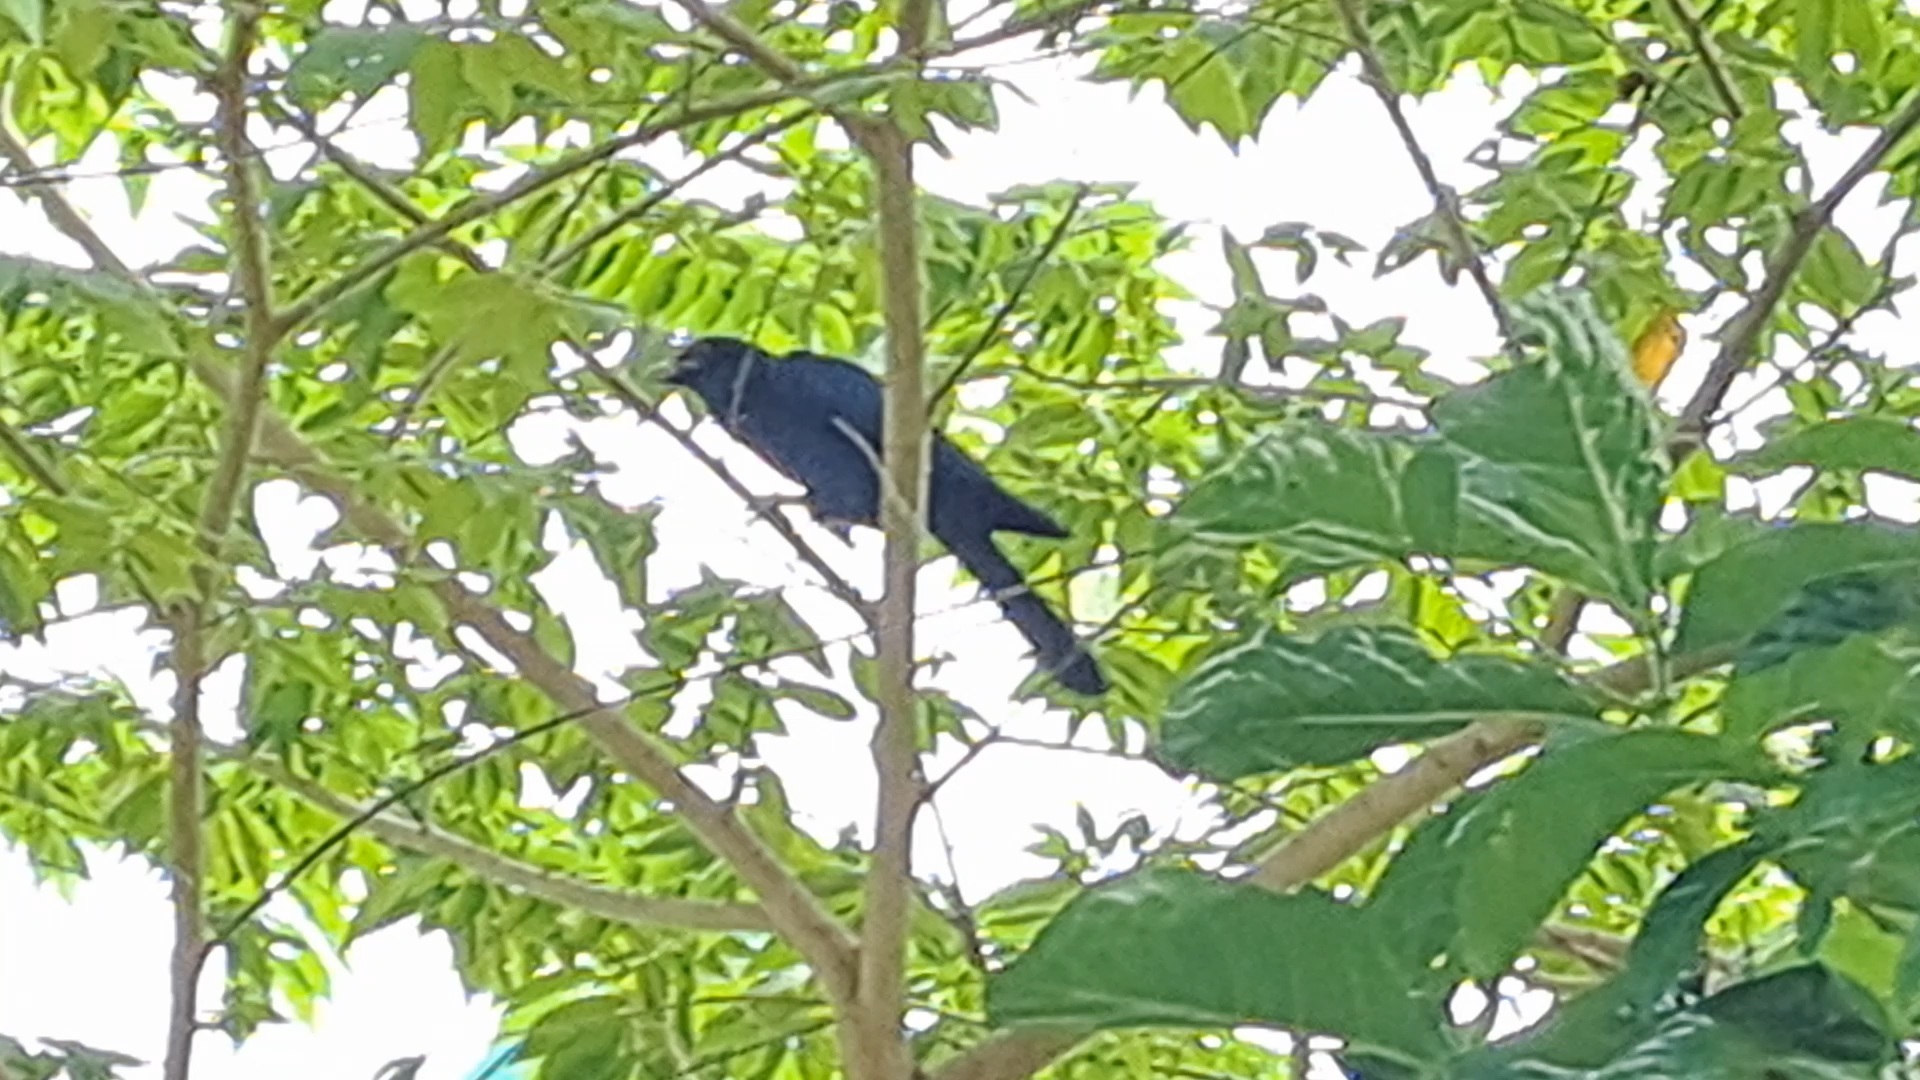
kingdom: Animalia
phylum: Chordata
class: Aves
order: Cuculiformes
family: Cuculidae
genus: Eudynamys
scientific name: Eudynamys scolopaceus
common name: Asian koel
